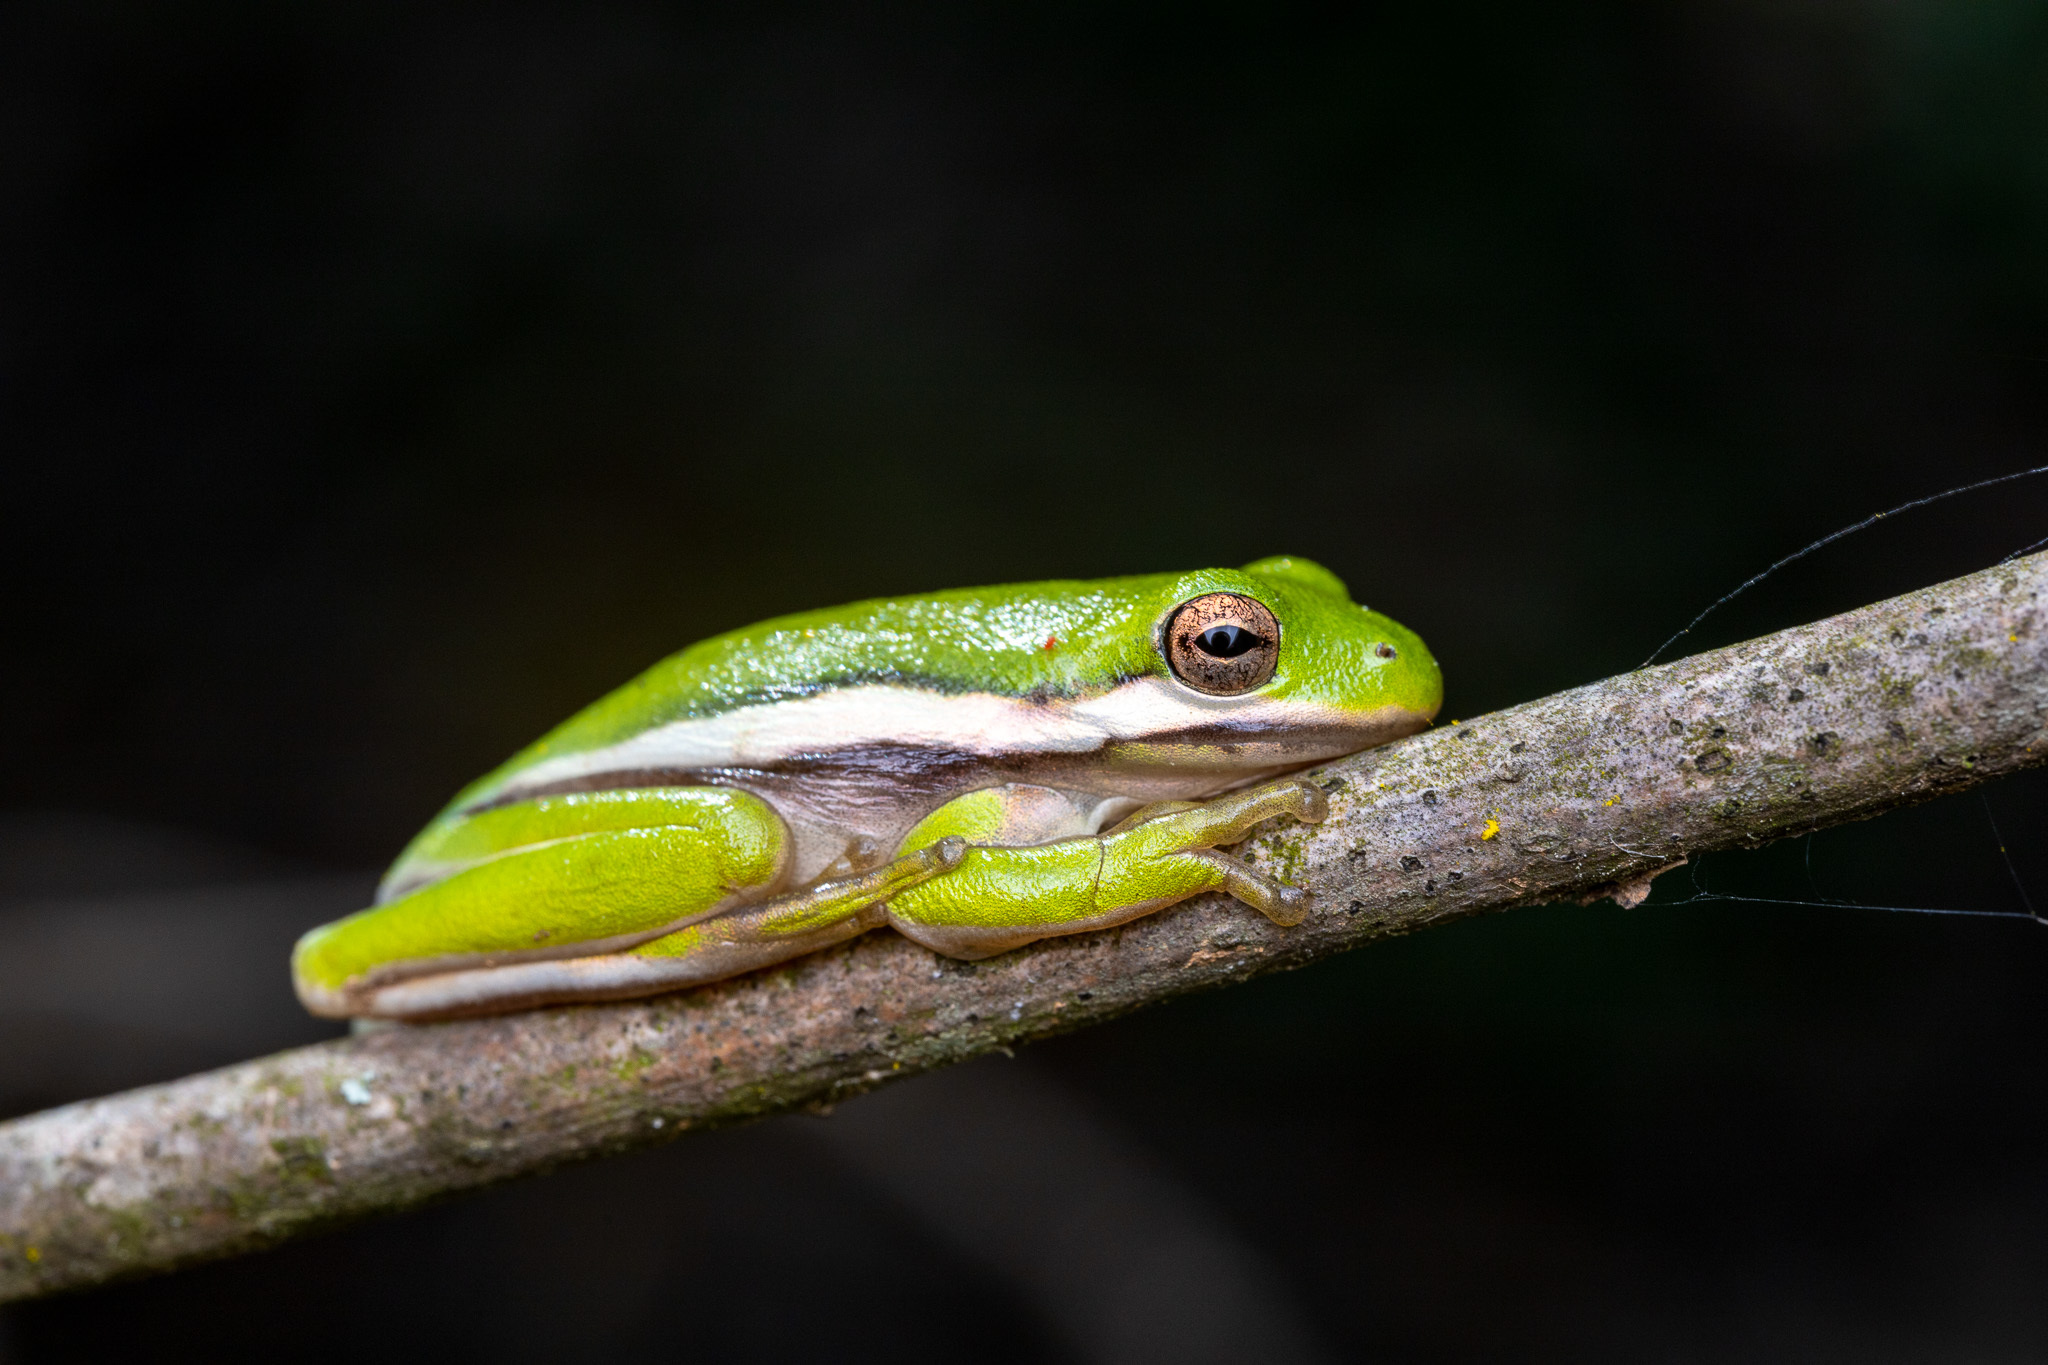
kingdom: Animalia
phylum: Chordata
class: Amphibia
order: Anura
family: Hylidae
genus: Dryophytes
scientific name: Dryophytes cinereus
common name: Green treefrog
